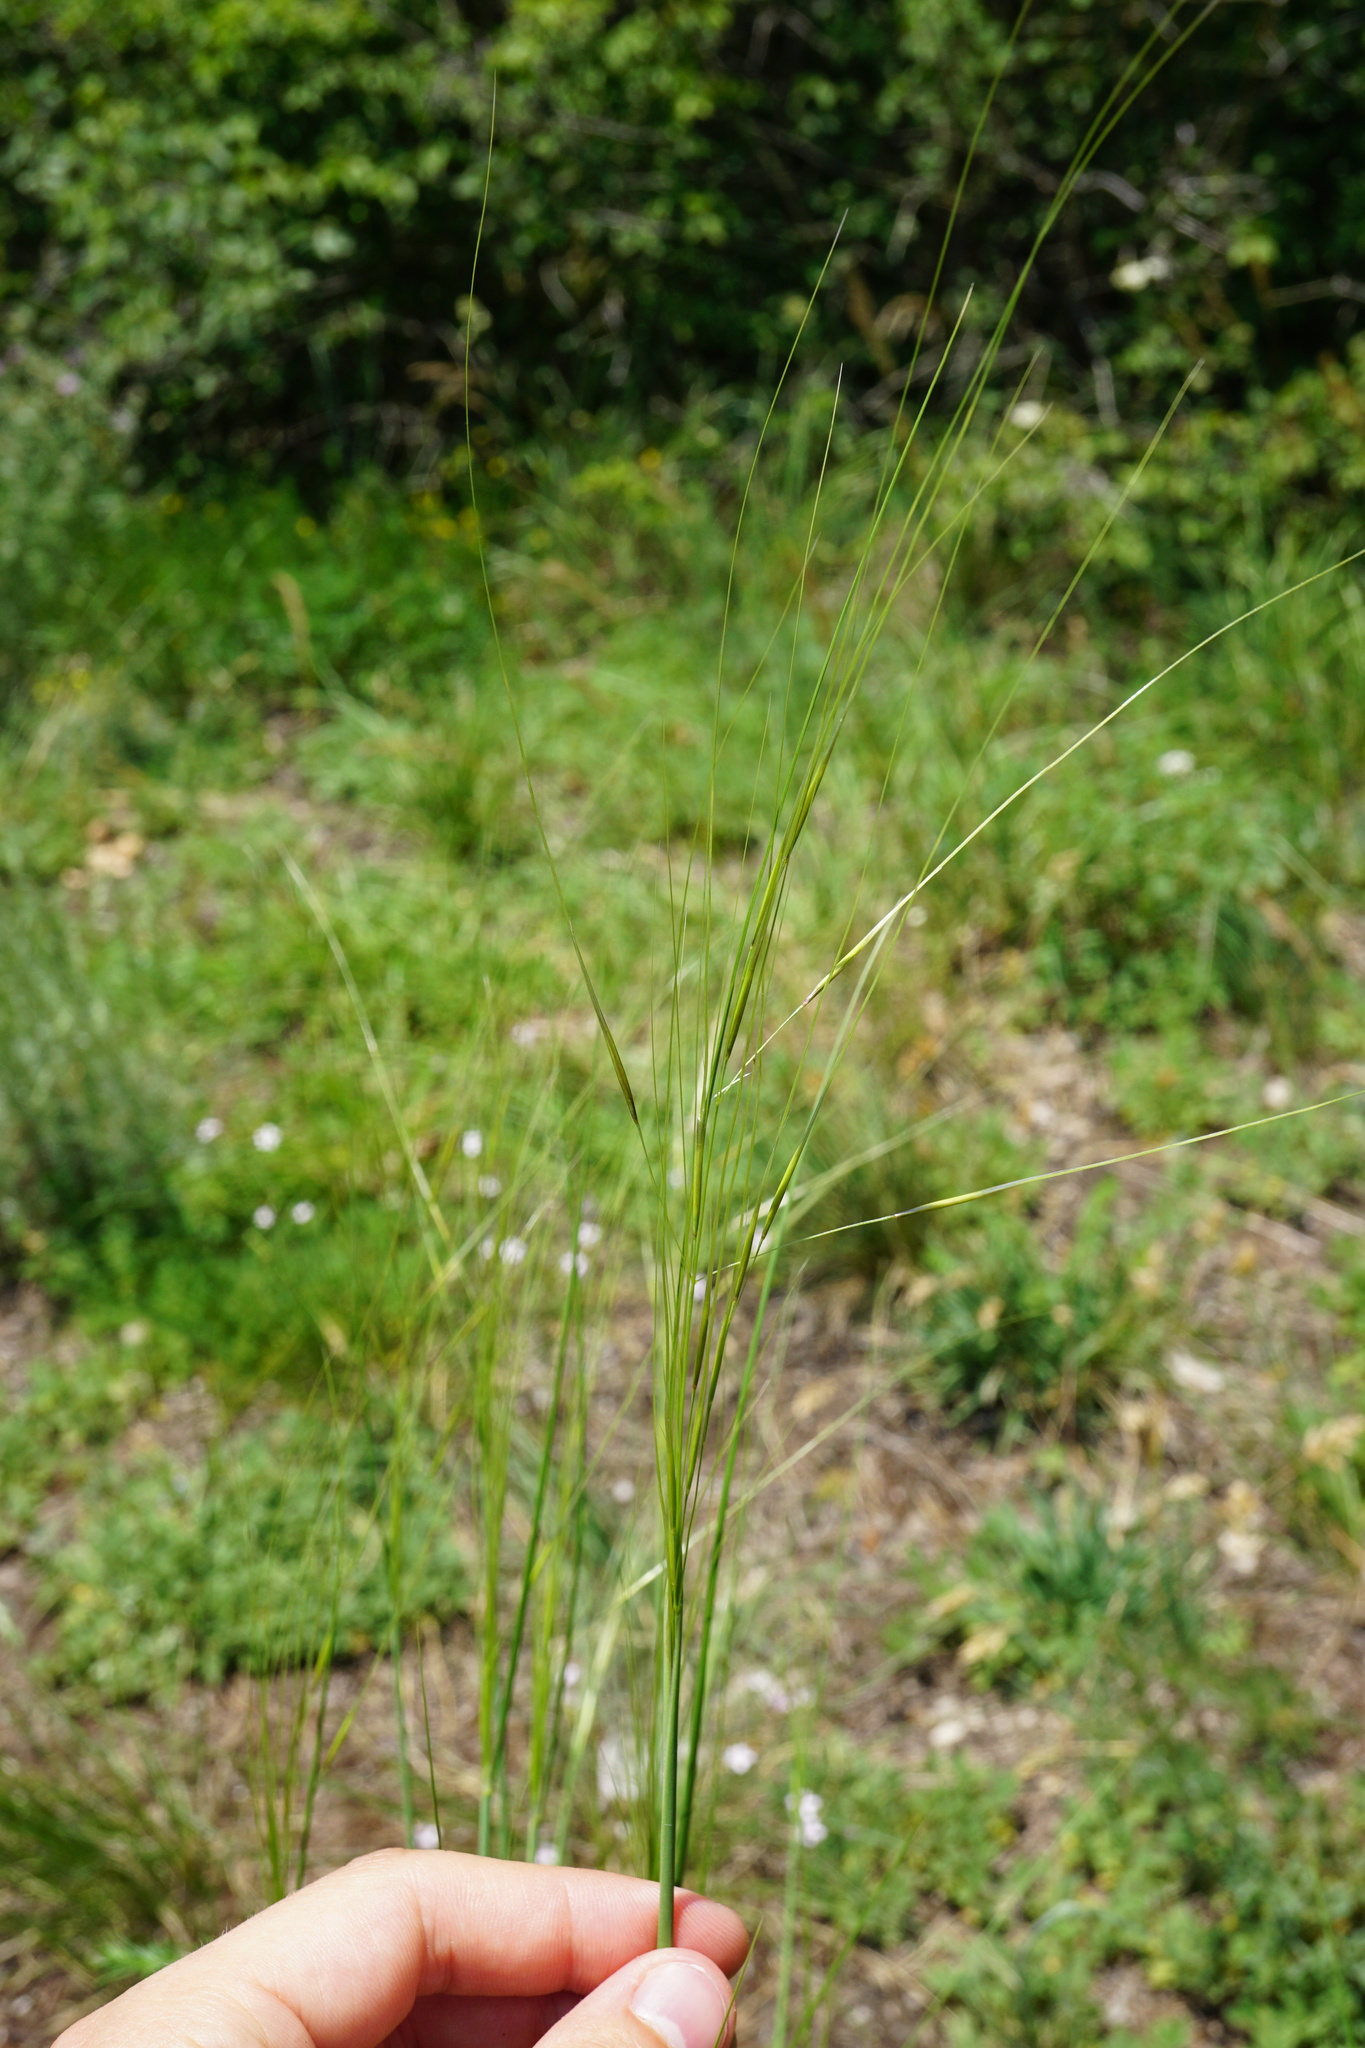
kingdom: Plantae
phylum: Tracheophyta
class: Liliopsida
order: Poales
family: Poaceae
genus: Stipa
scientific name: Stipa capillata
